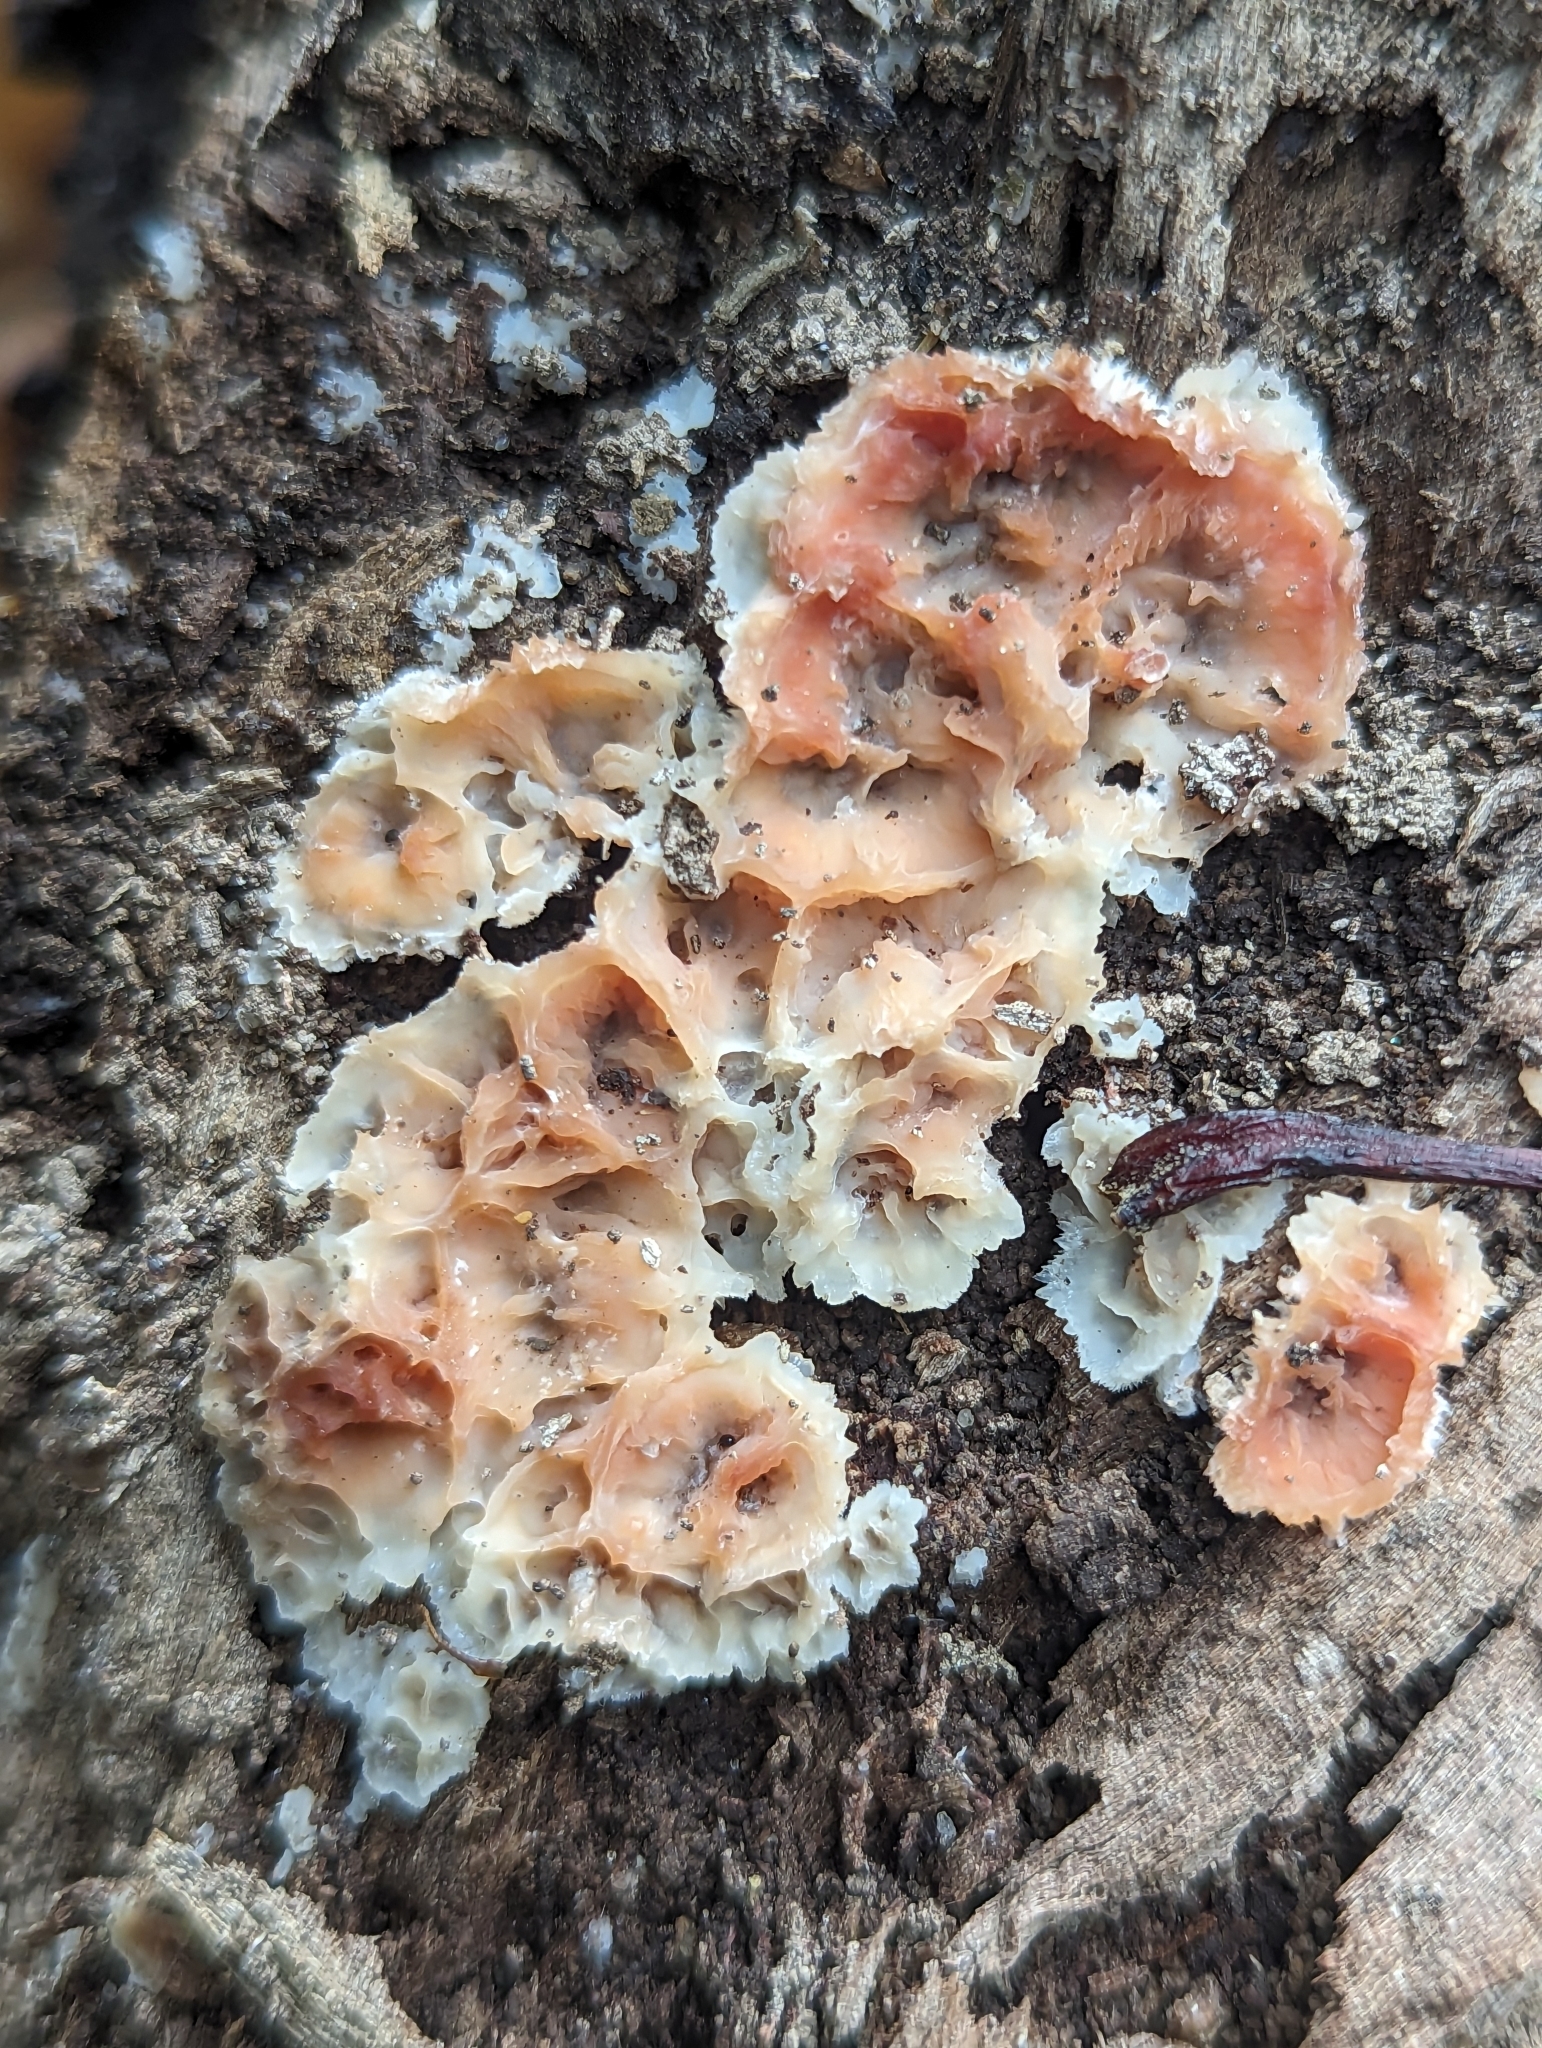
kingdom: Fungi
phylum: Basidiomycota
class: Agaricomycetes
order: Polyporales
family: Meruliaceae
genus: Phlebia
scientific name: Phlebia tremellosa
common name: Jelly rot
